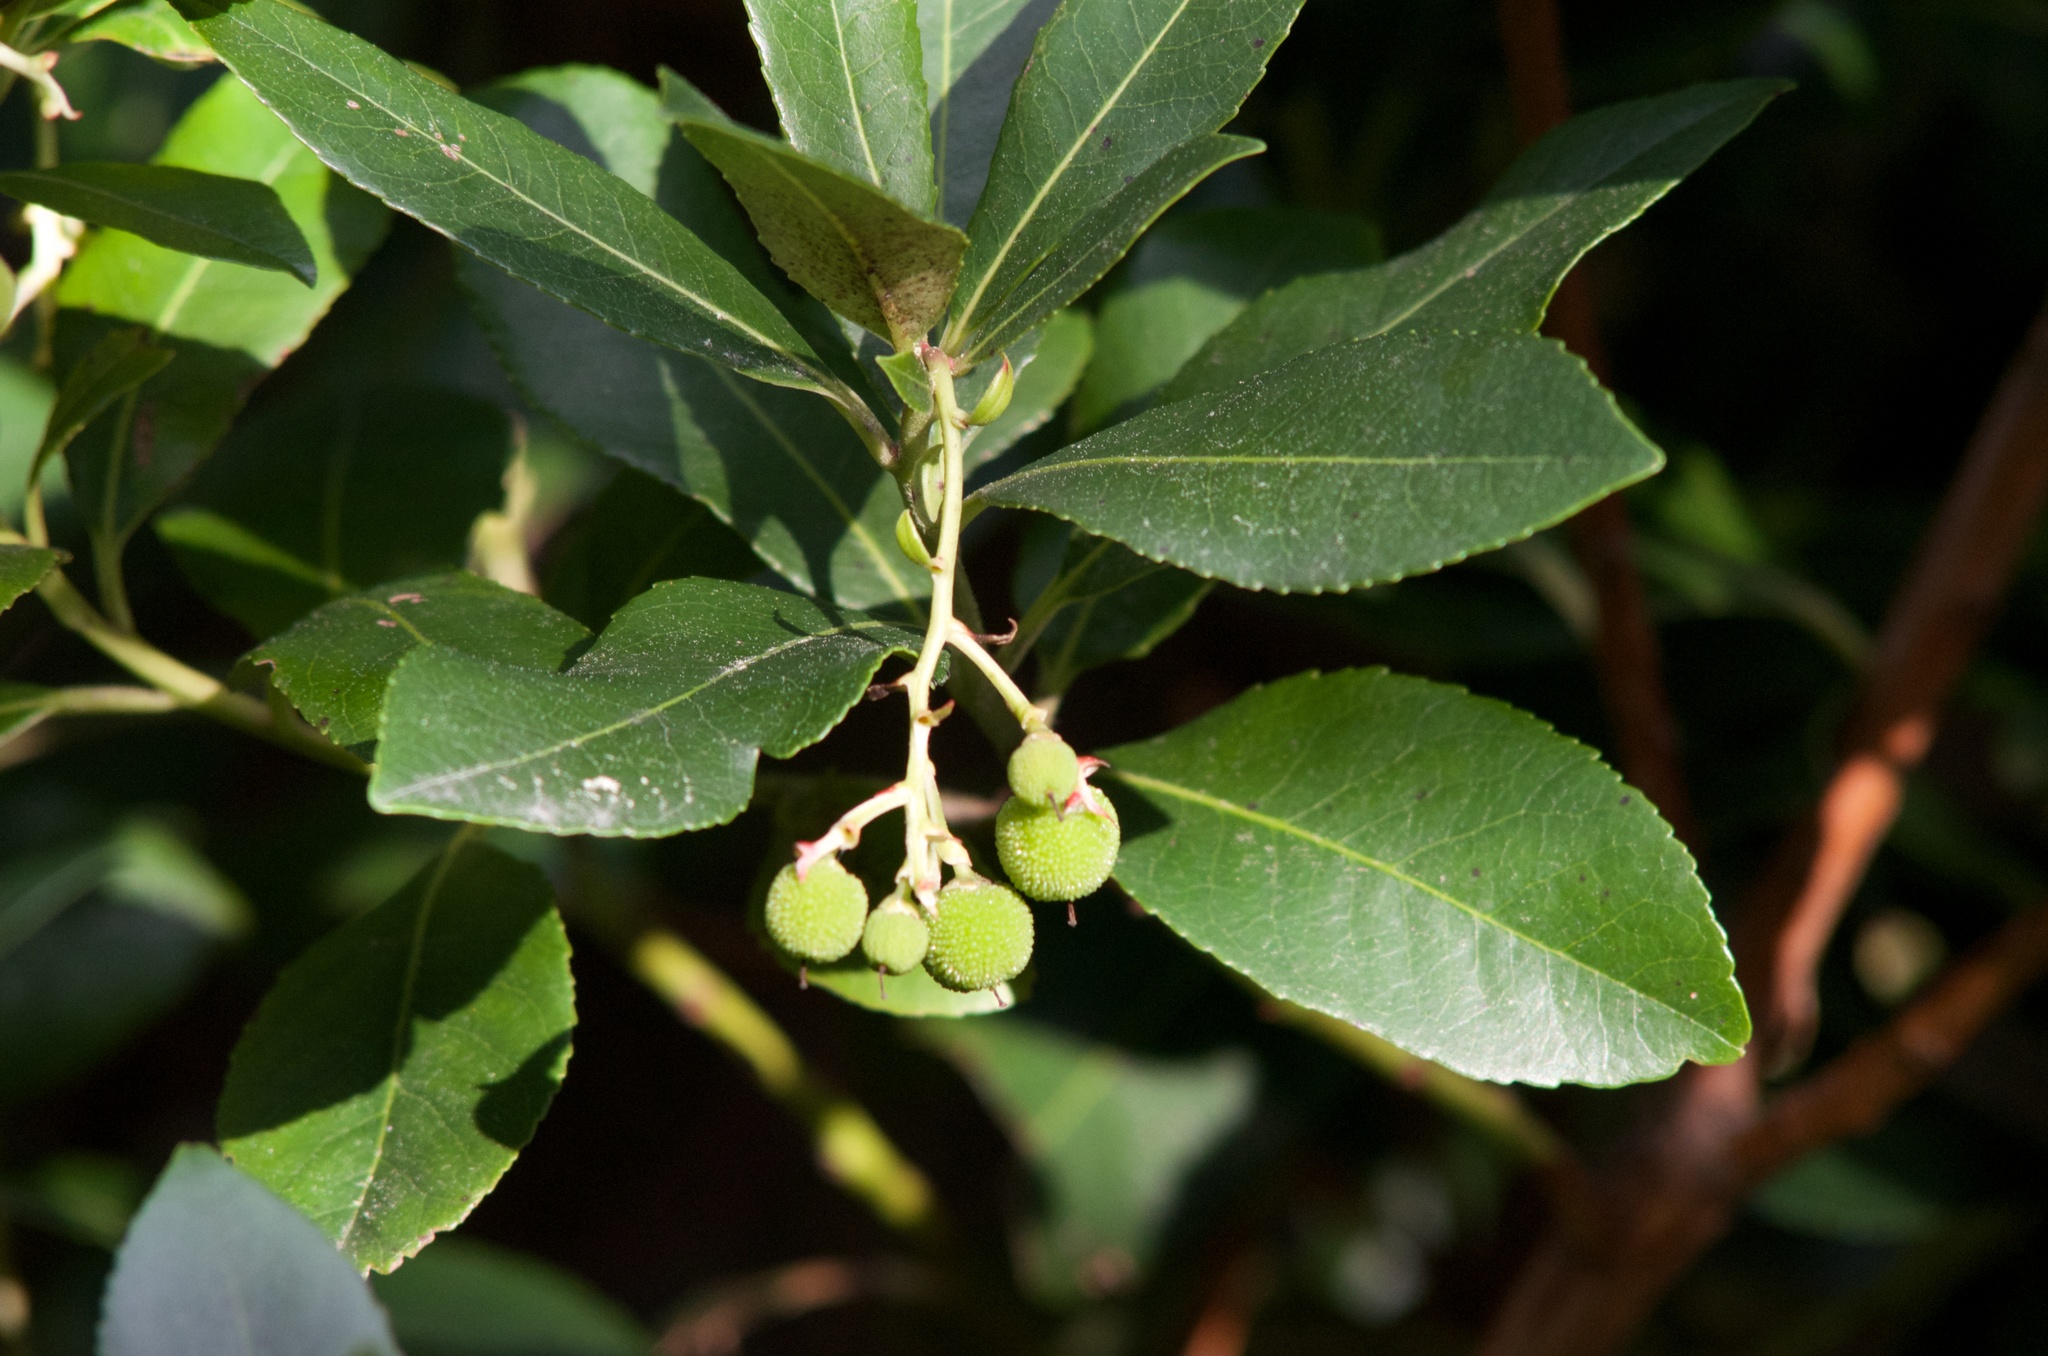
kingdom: Plantae
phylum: Tracheophyta
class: Magnoliopsida
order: Ericales
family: Ericaceae
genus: Arbutus
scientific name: Arbutus unedo
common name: Strawberry-tree
